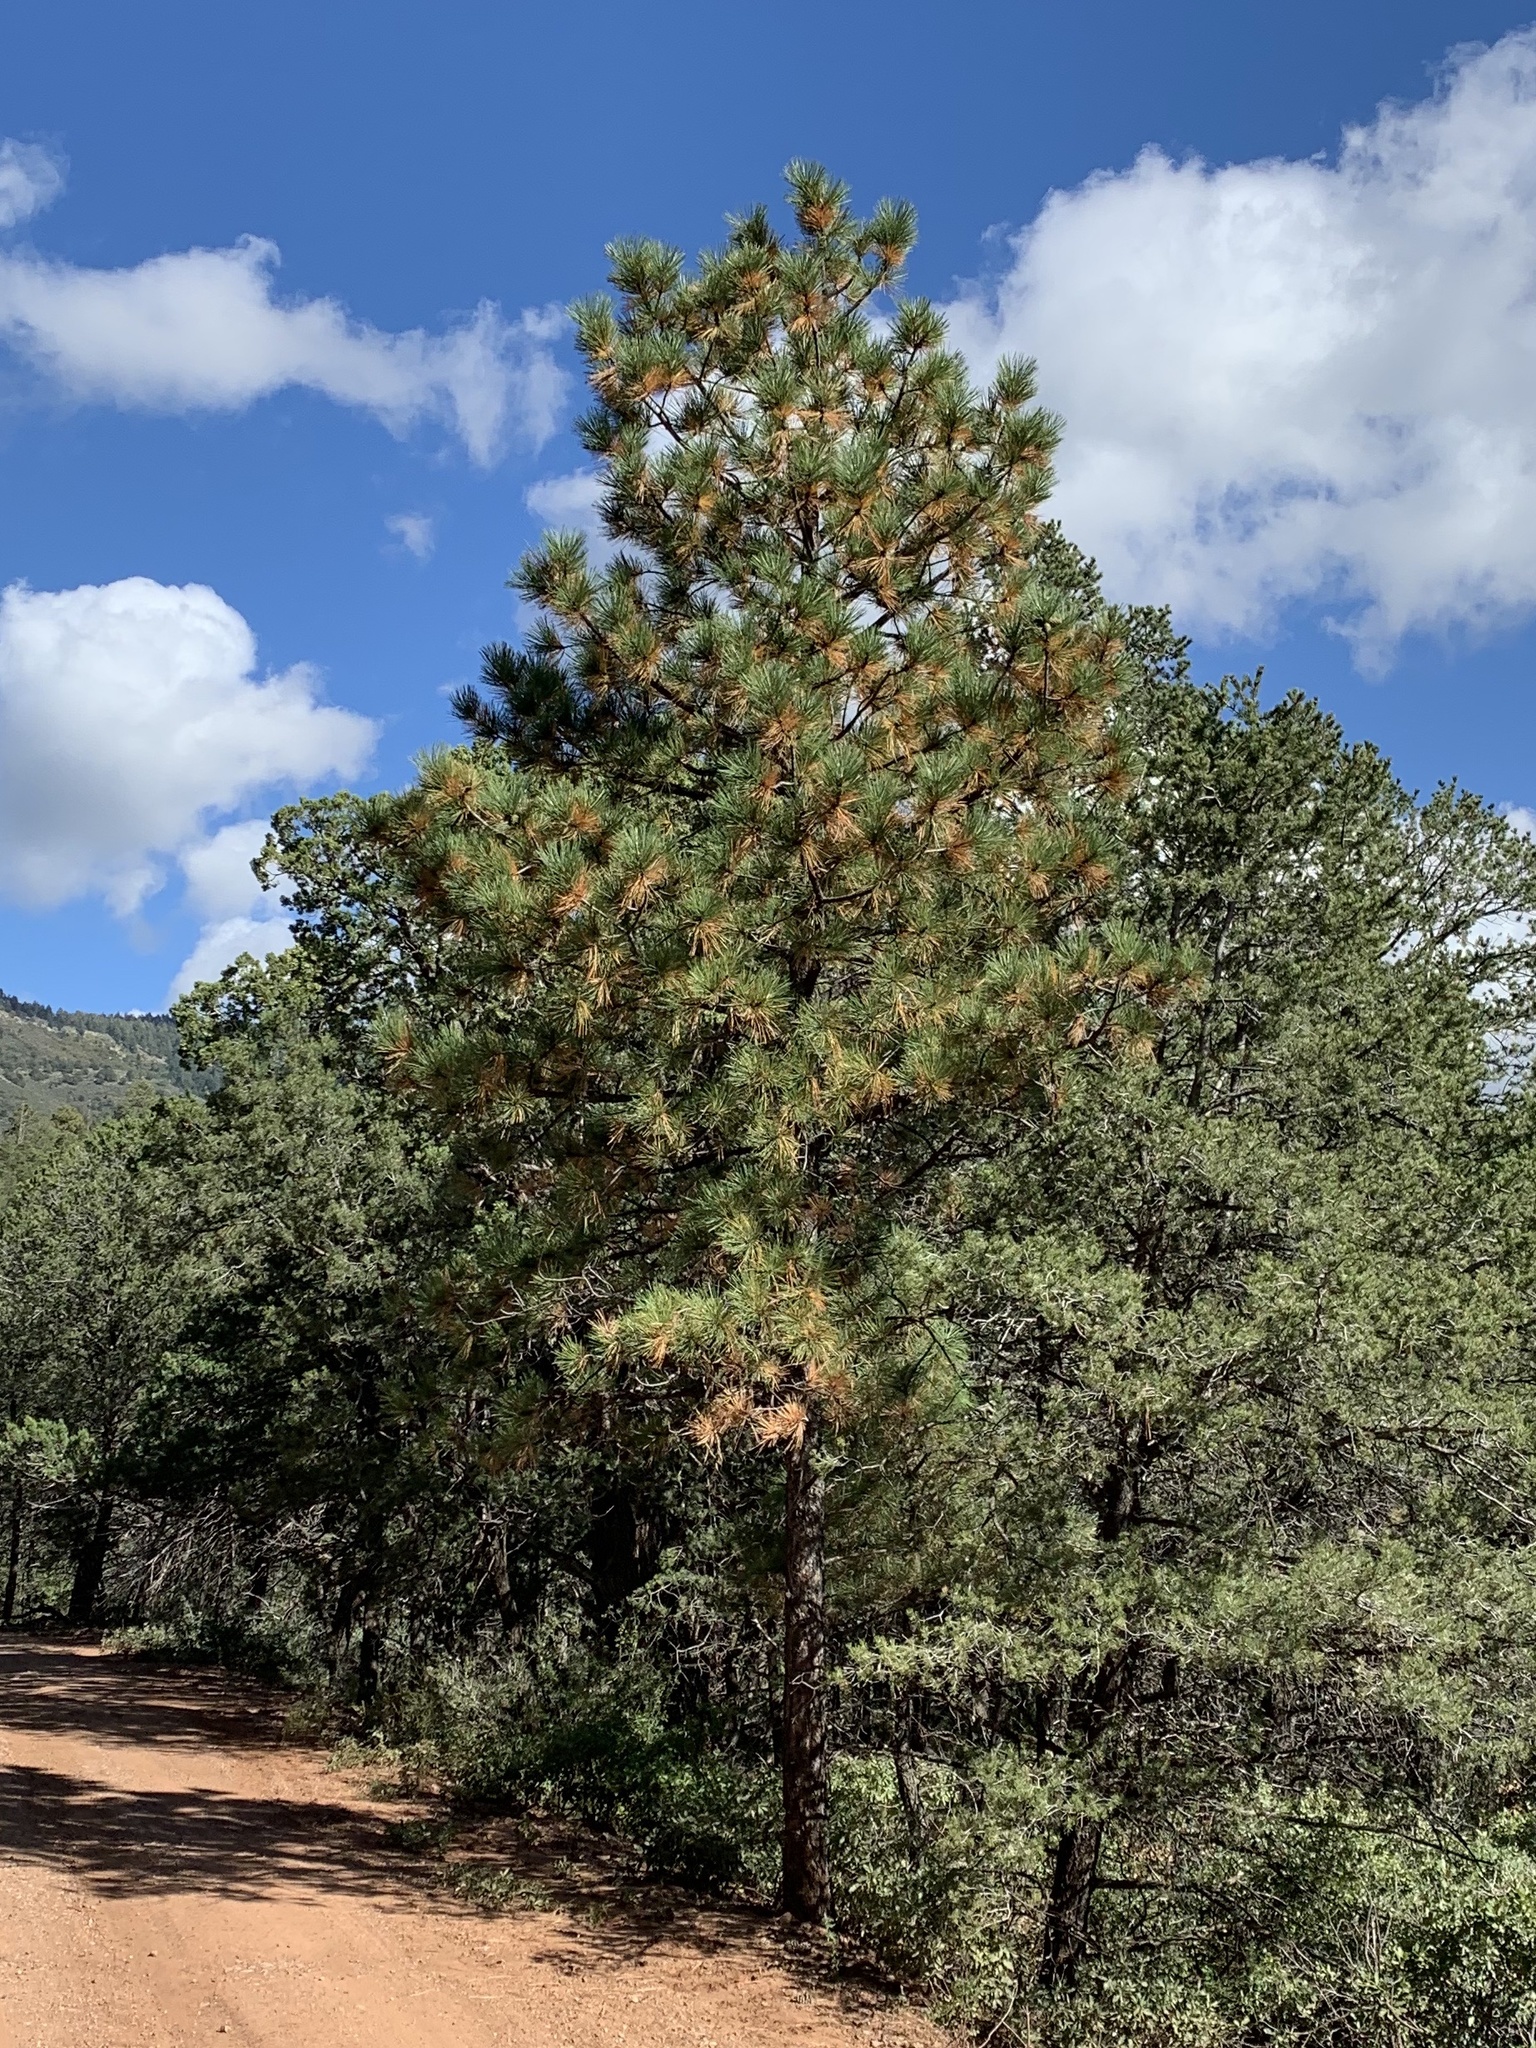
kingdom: Plantae
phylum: Tracheophyta
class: Pinopsida
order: Pinales
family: Pinaceae
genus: Pinus
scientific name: Pinus ponderosa
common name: Western yellow-pine
